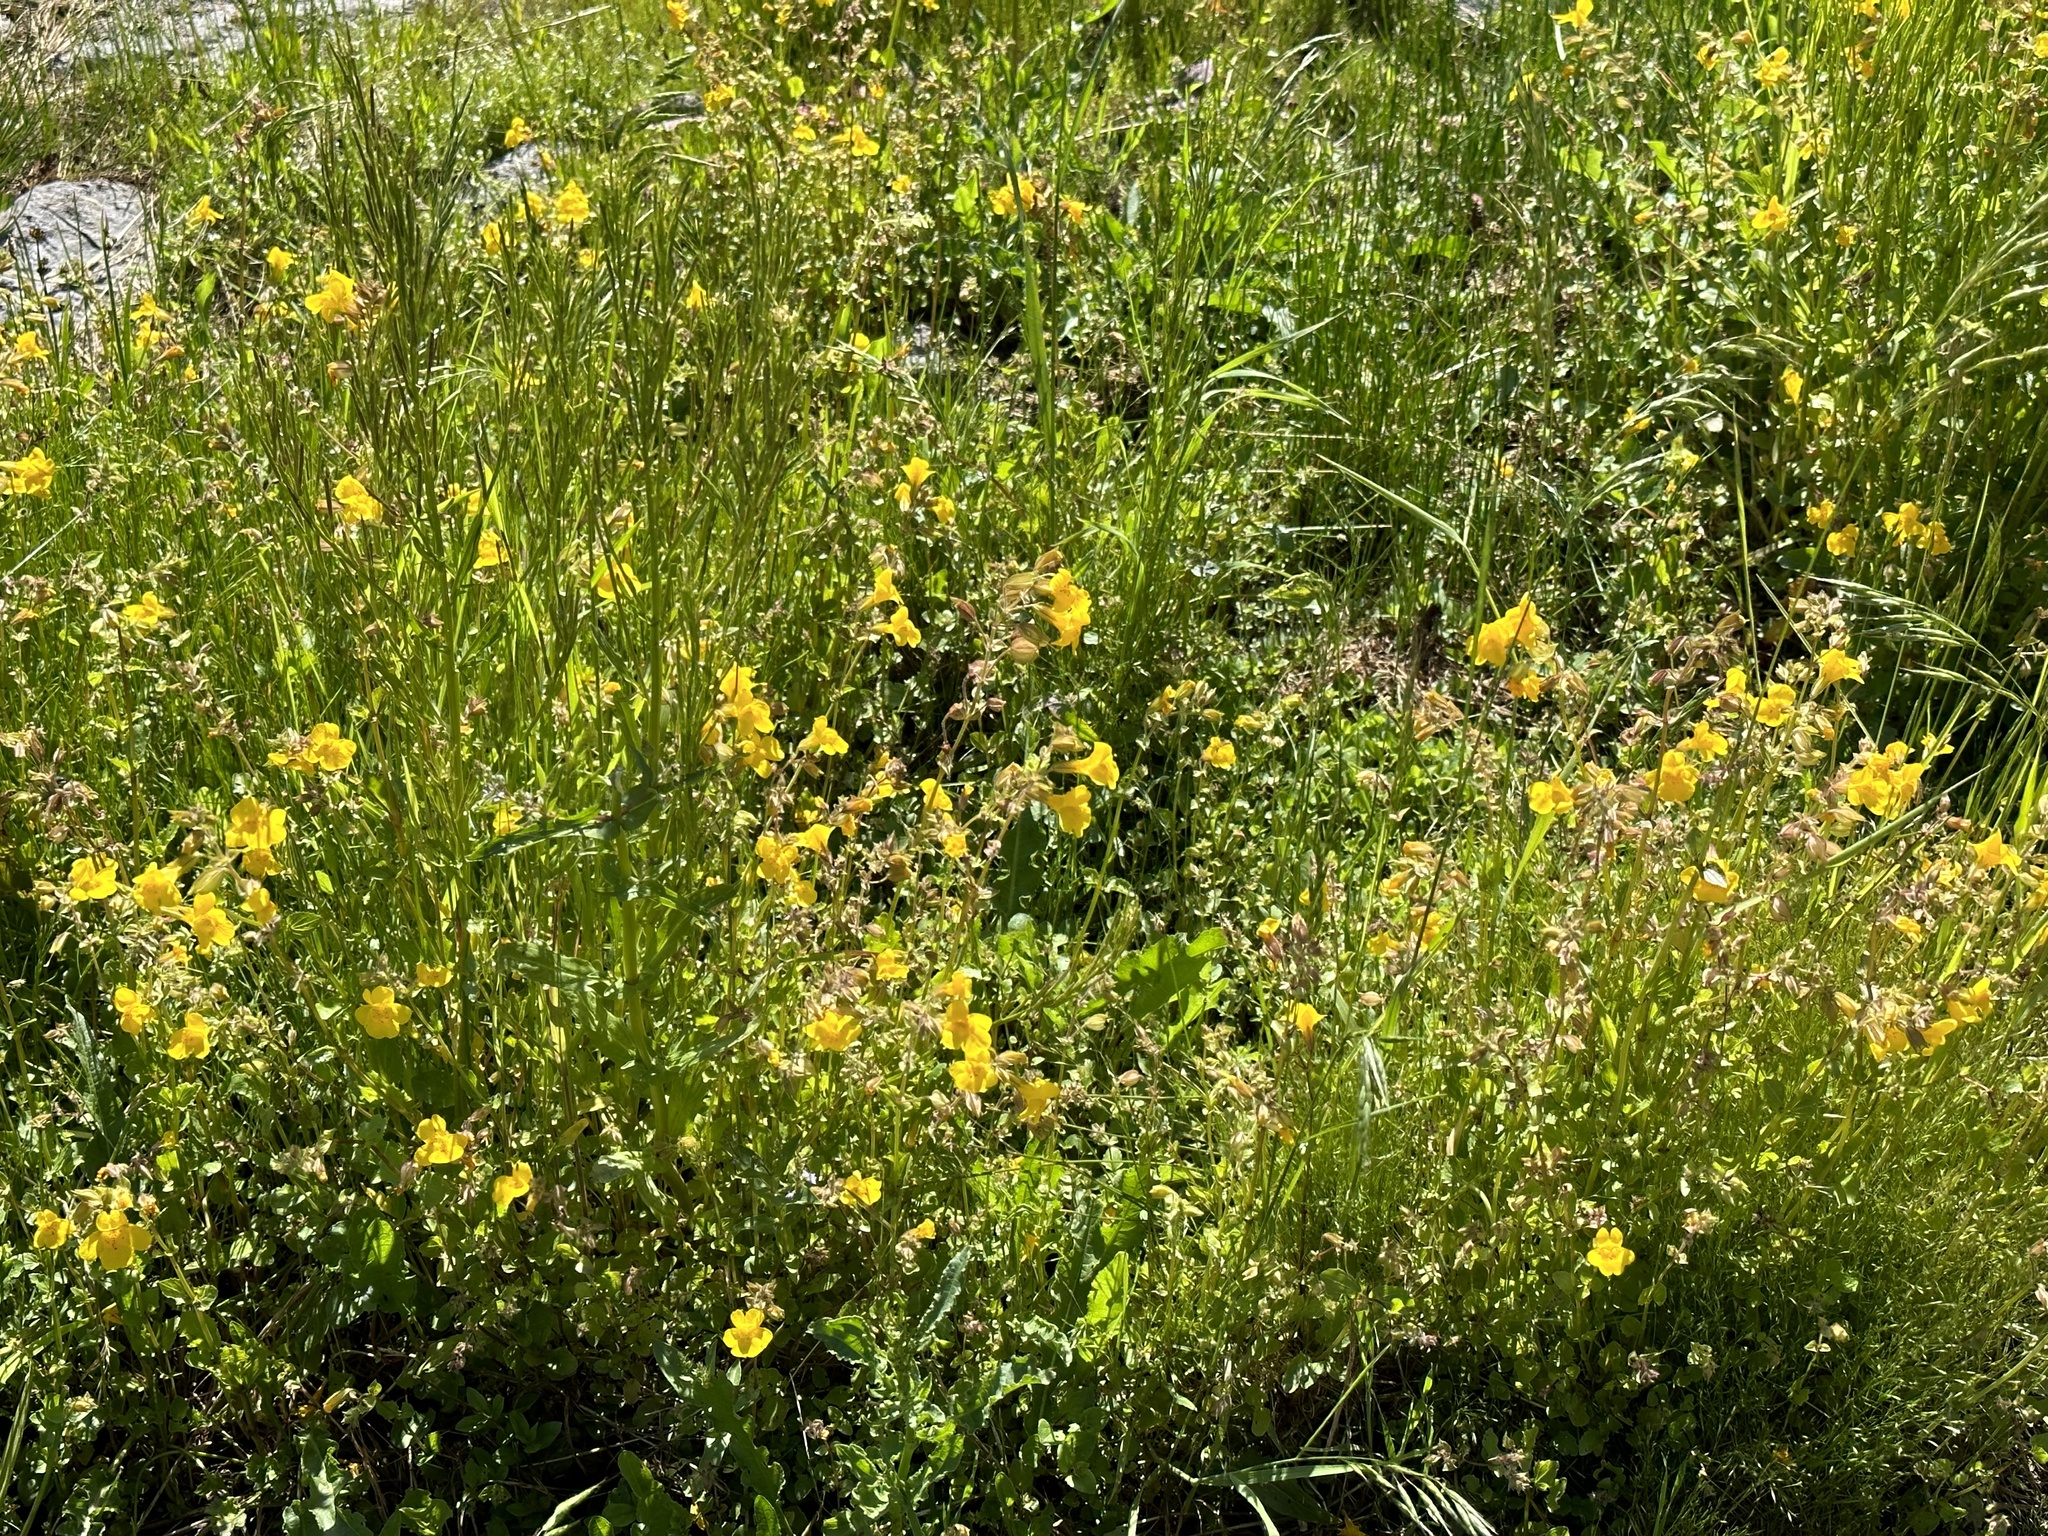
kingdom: Plantae
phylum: Tracheophyta
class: Magnoliopsida
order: Lamiales
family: Phrymaceae
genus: Erythranthe
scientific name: Erythranthe guttata
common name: Monkeyflower
